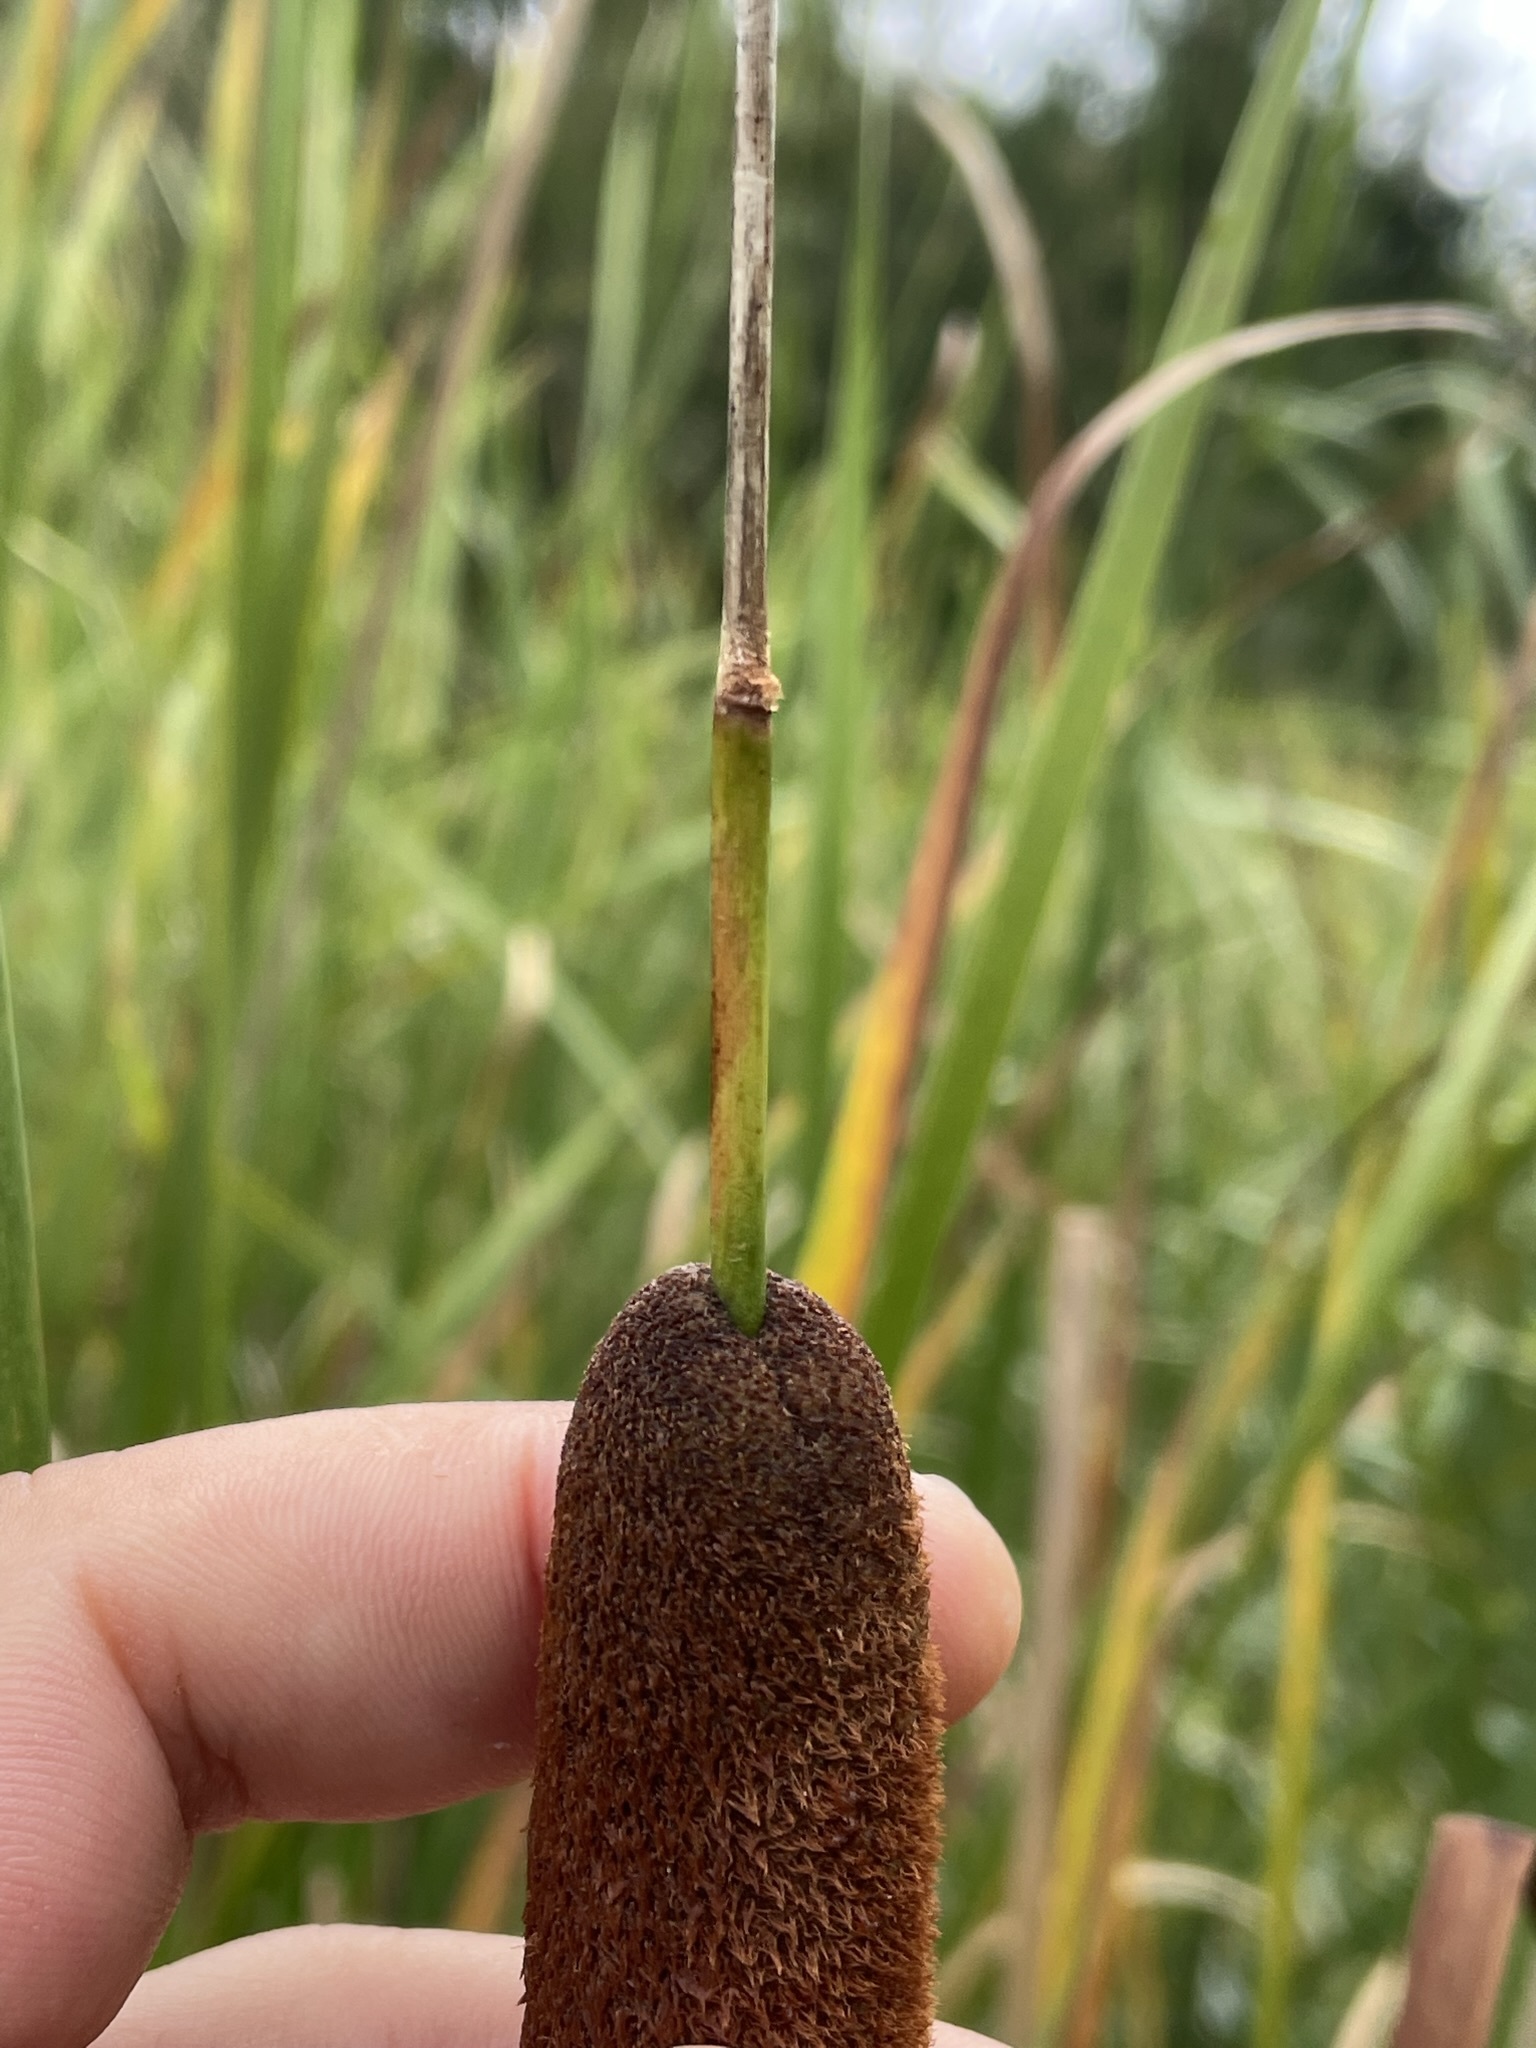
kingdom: Plantae
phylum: Tracheophyta
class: Liliopsida
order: Poales
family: Typhaceae
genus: Typha
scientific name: Typha angustifolia
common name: Lesser bulrush
